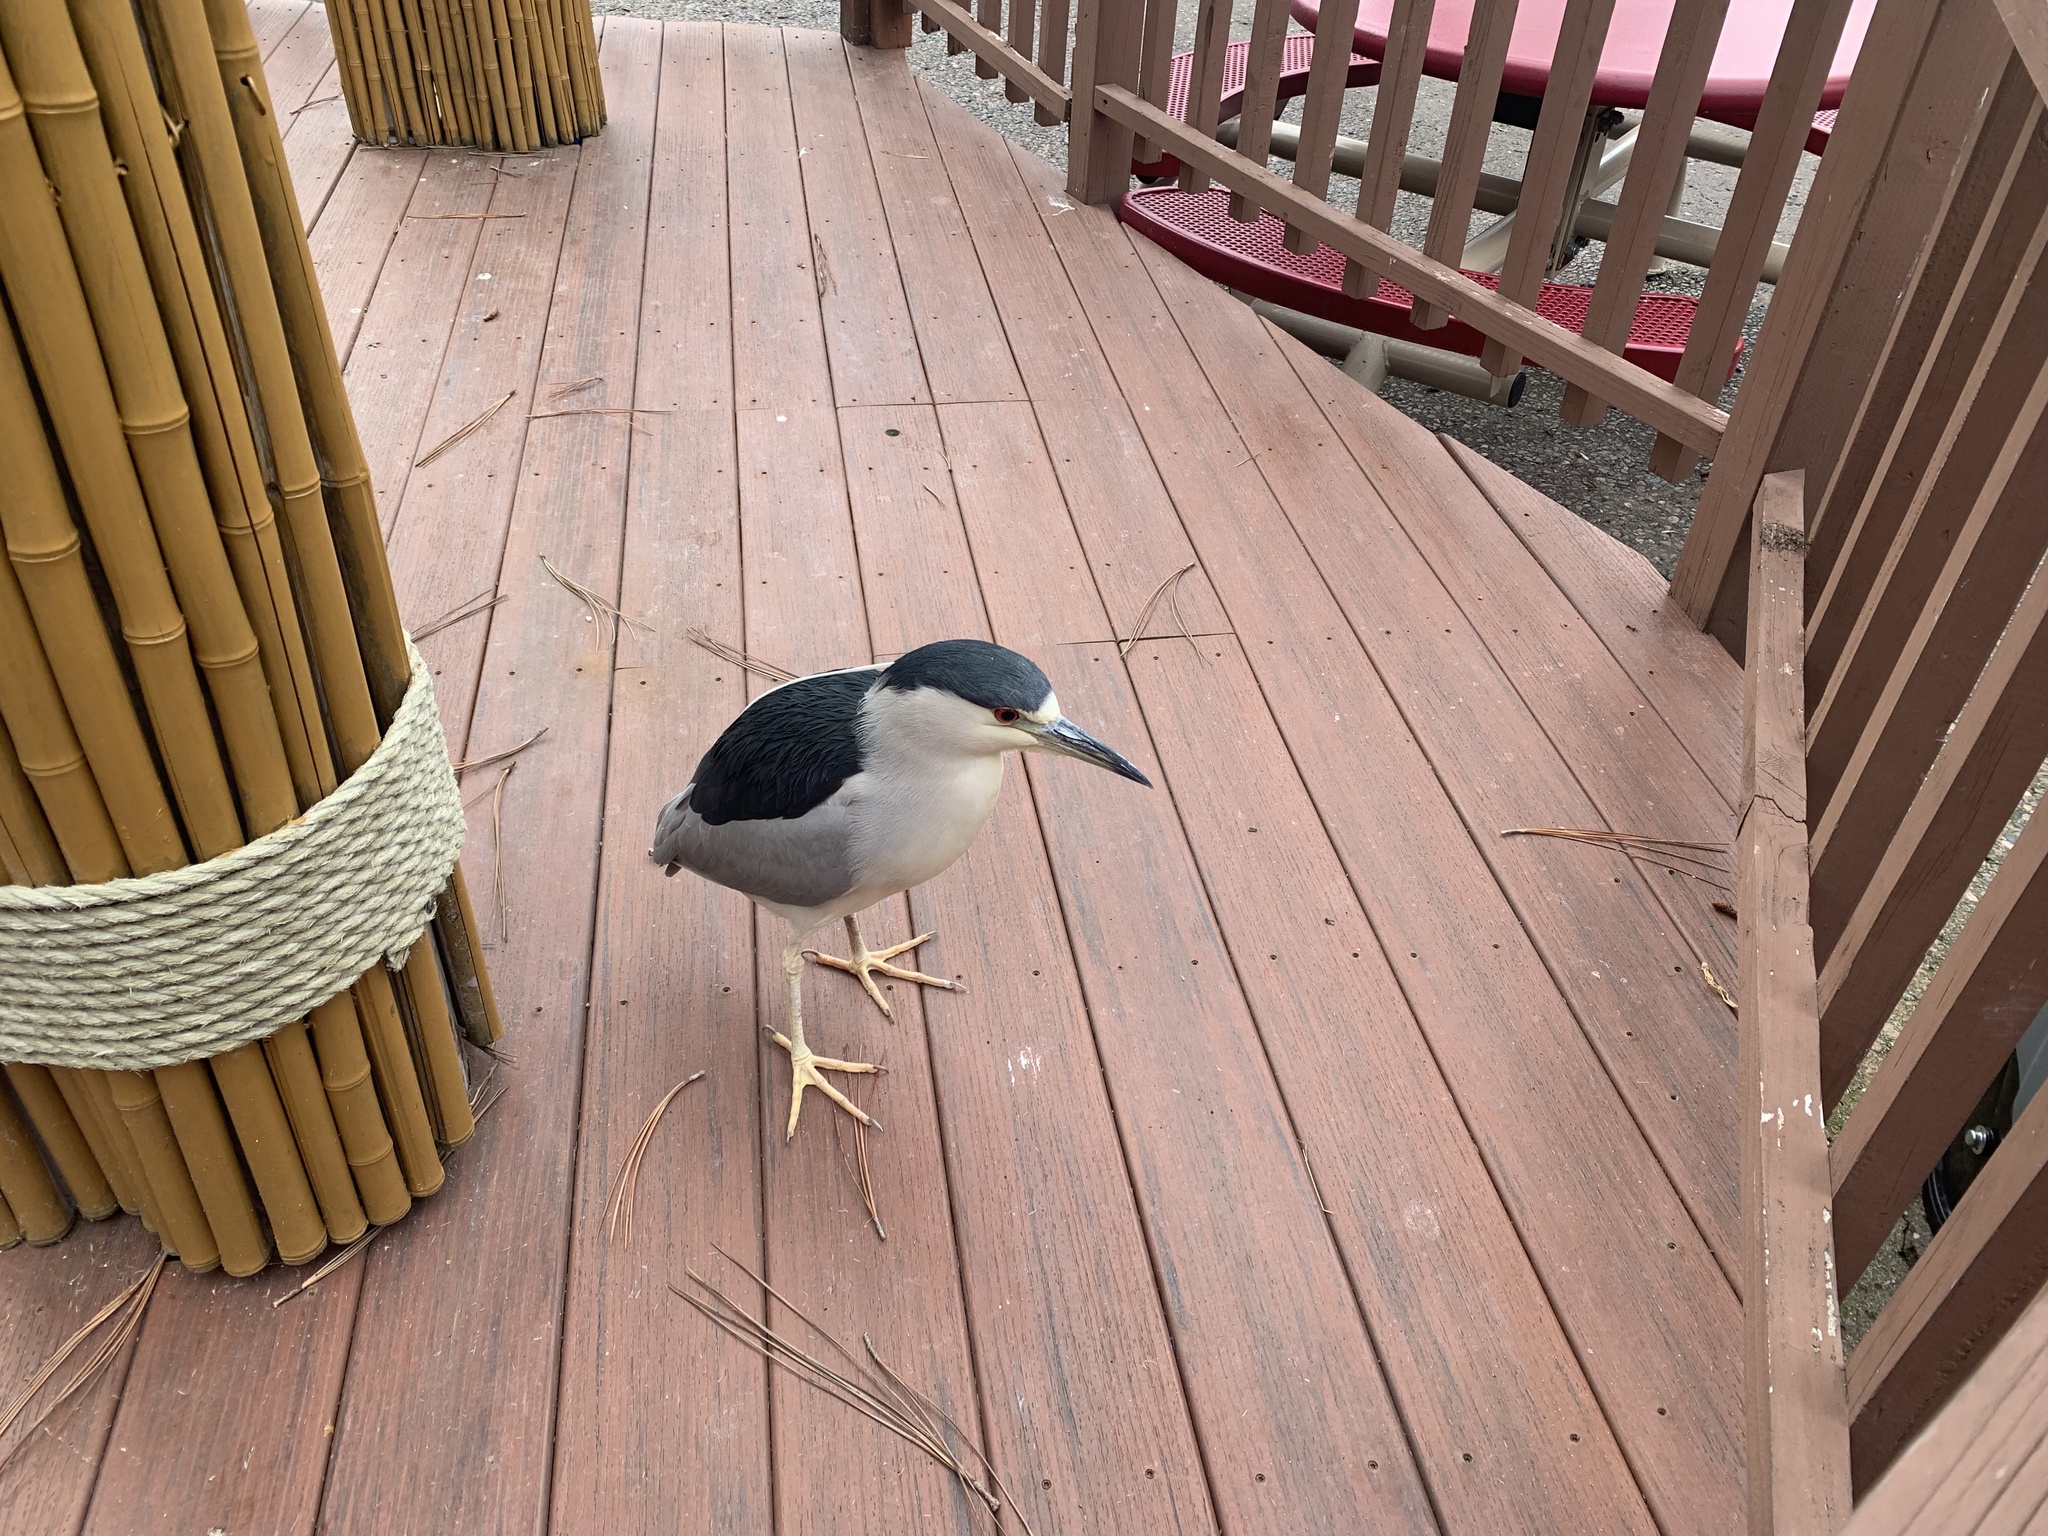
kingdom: Animalia
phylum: Chordata
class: Aves
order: Pelecaniformes
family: Ardeidae
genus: Nycticorax
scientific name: Nycticorax nycticorax
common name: Black-crowned night heron
